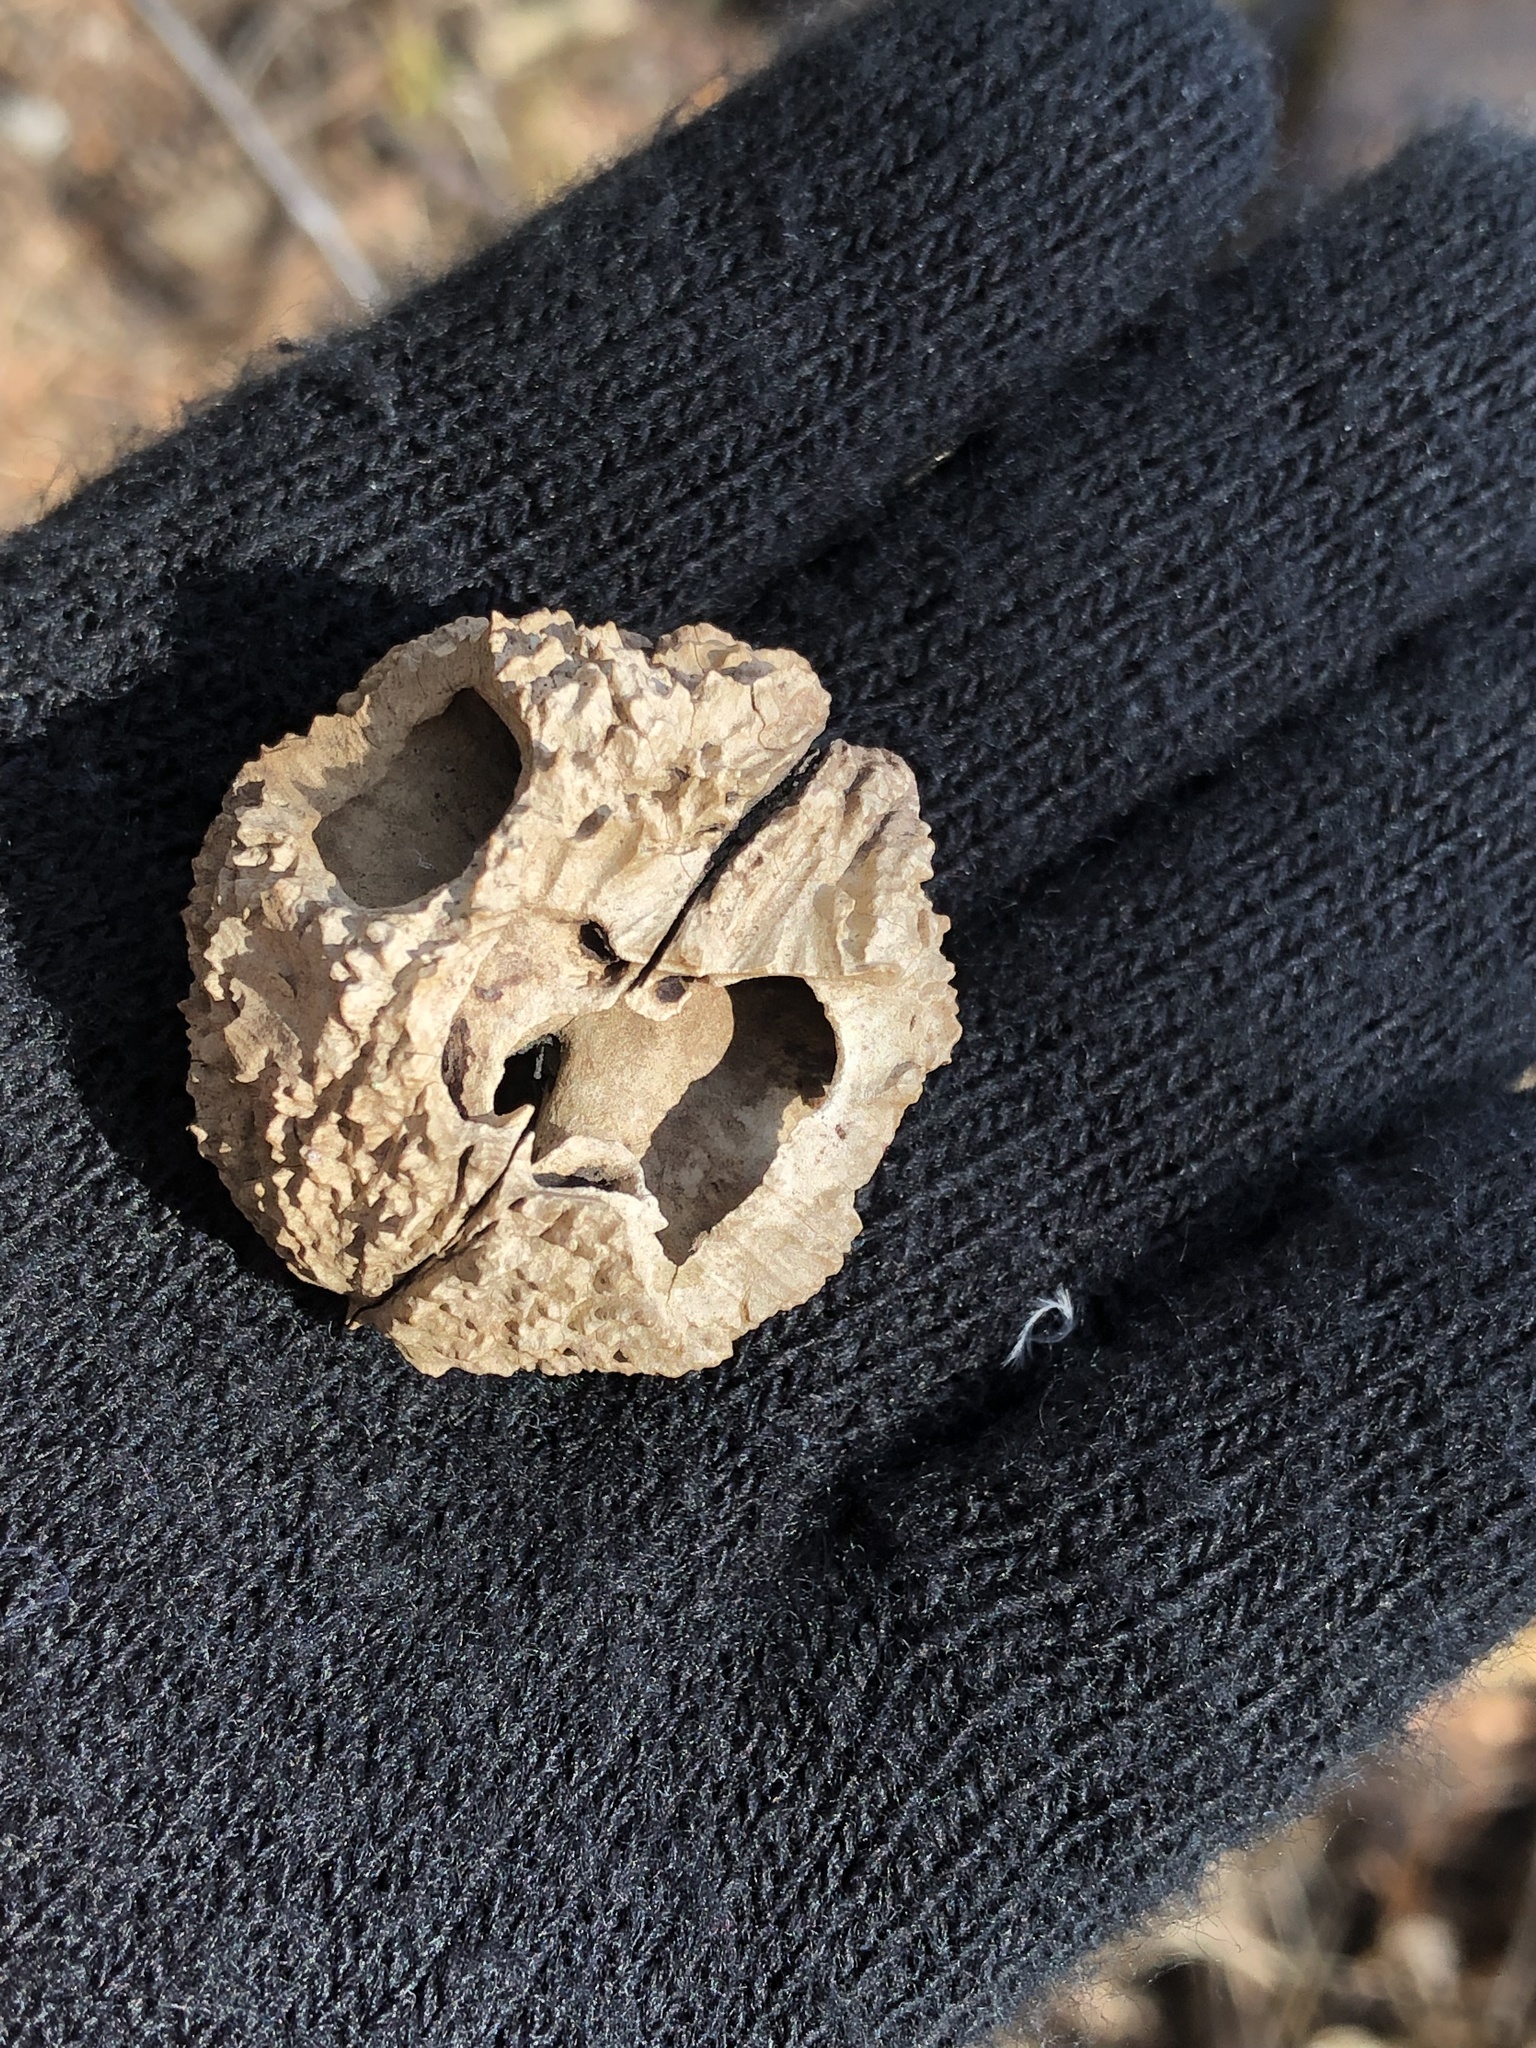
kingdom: Plantae
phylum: Tracheophyta
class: Magnoliopsida
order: Fagales
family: Juglandaceae
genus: Juglans
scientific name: Juglans nigra
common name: Black walnut
